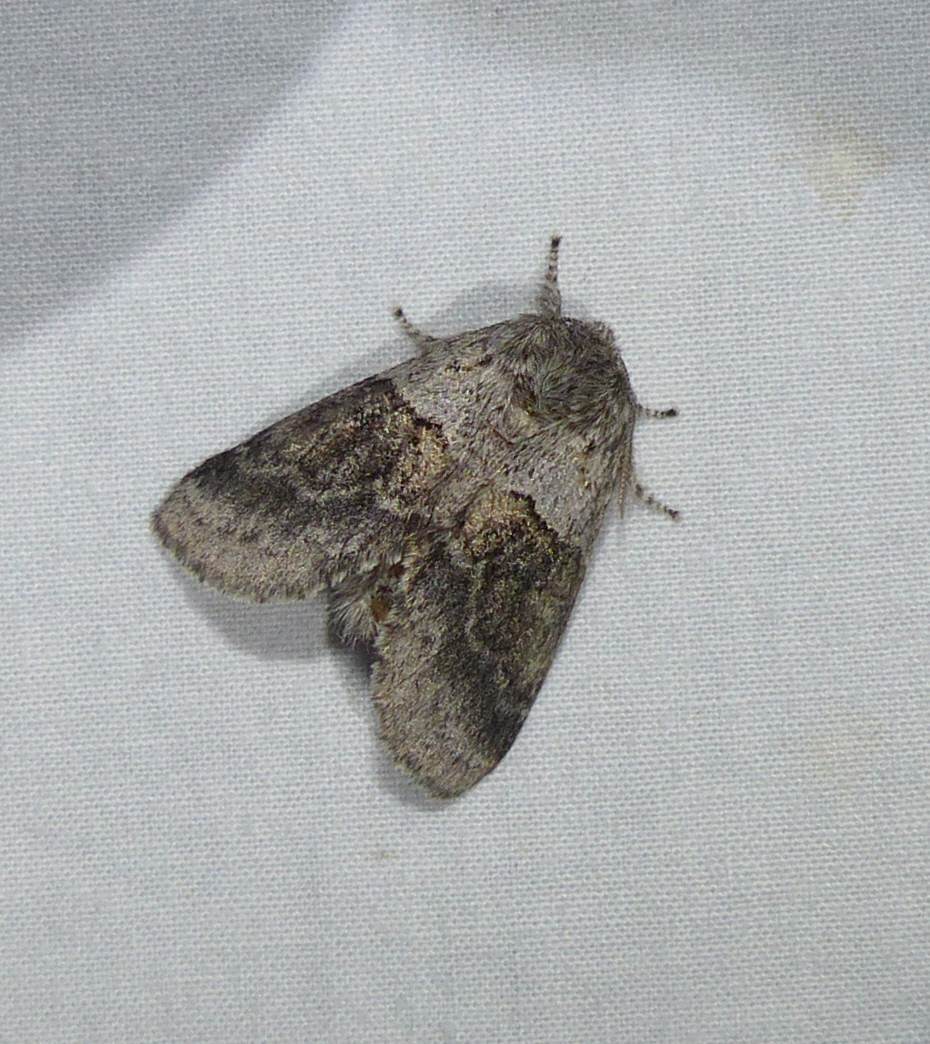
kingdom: Animalia
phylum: Arthropoda
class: Insecta
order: Lepidoptera
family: Notodontidae
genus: Gluphisia
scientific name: Gluphisia septentrionis
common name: Common gluphisia
